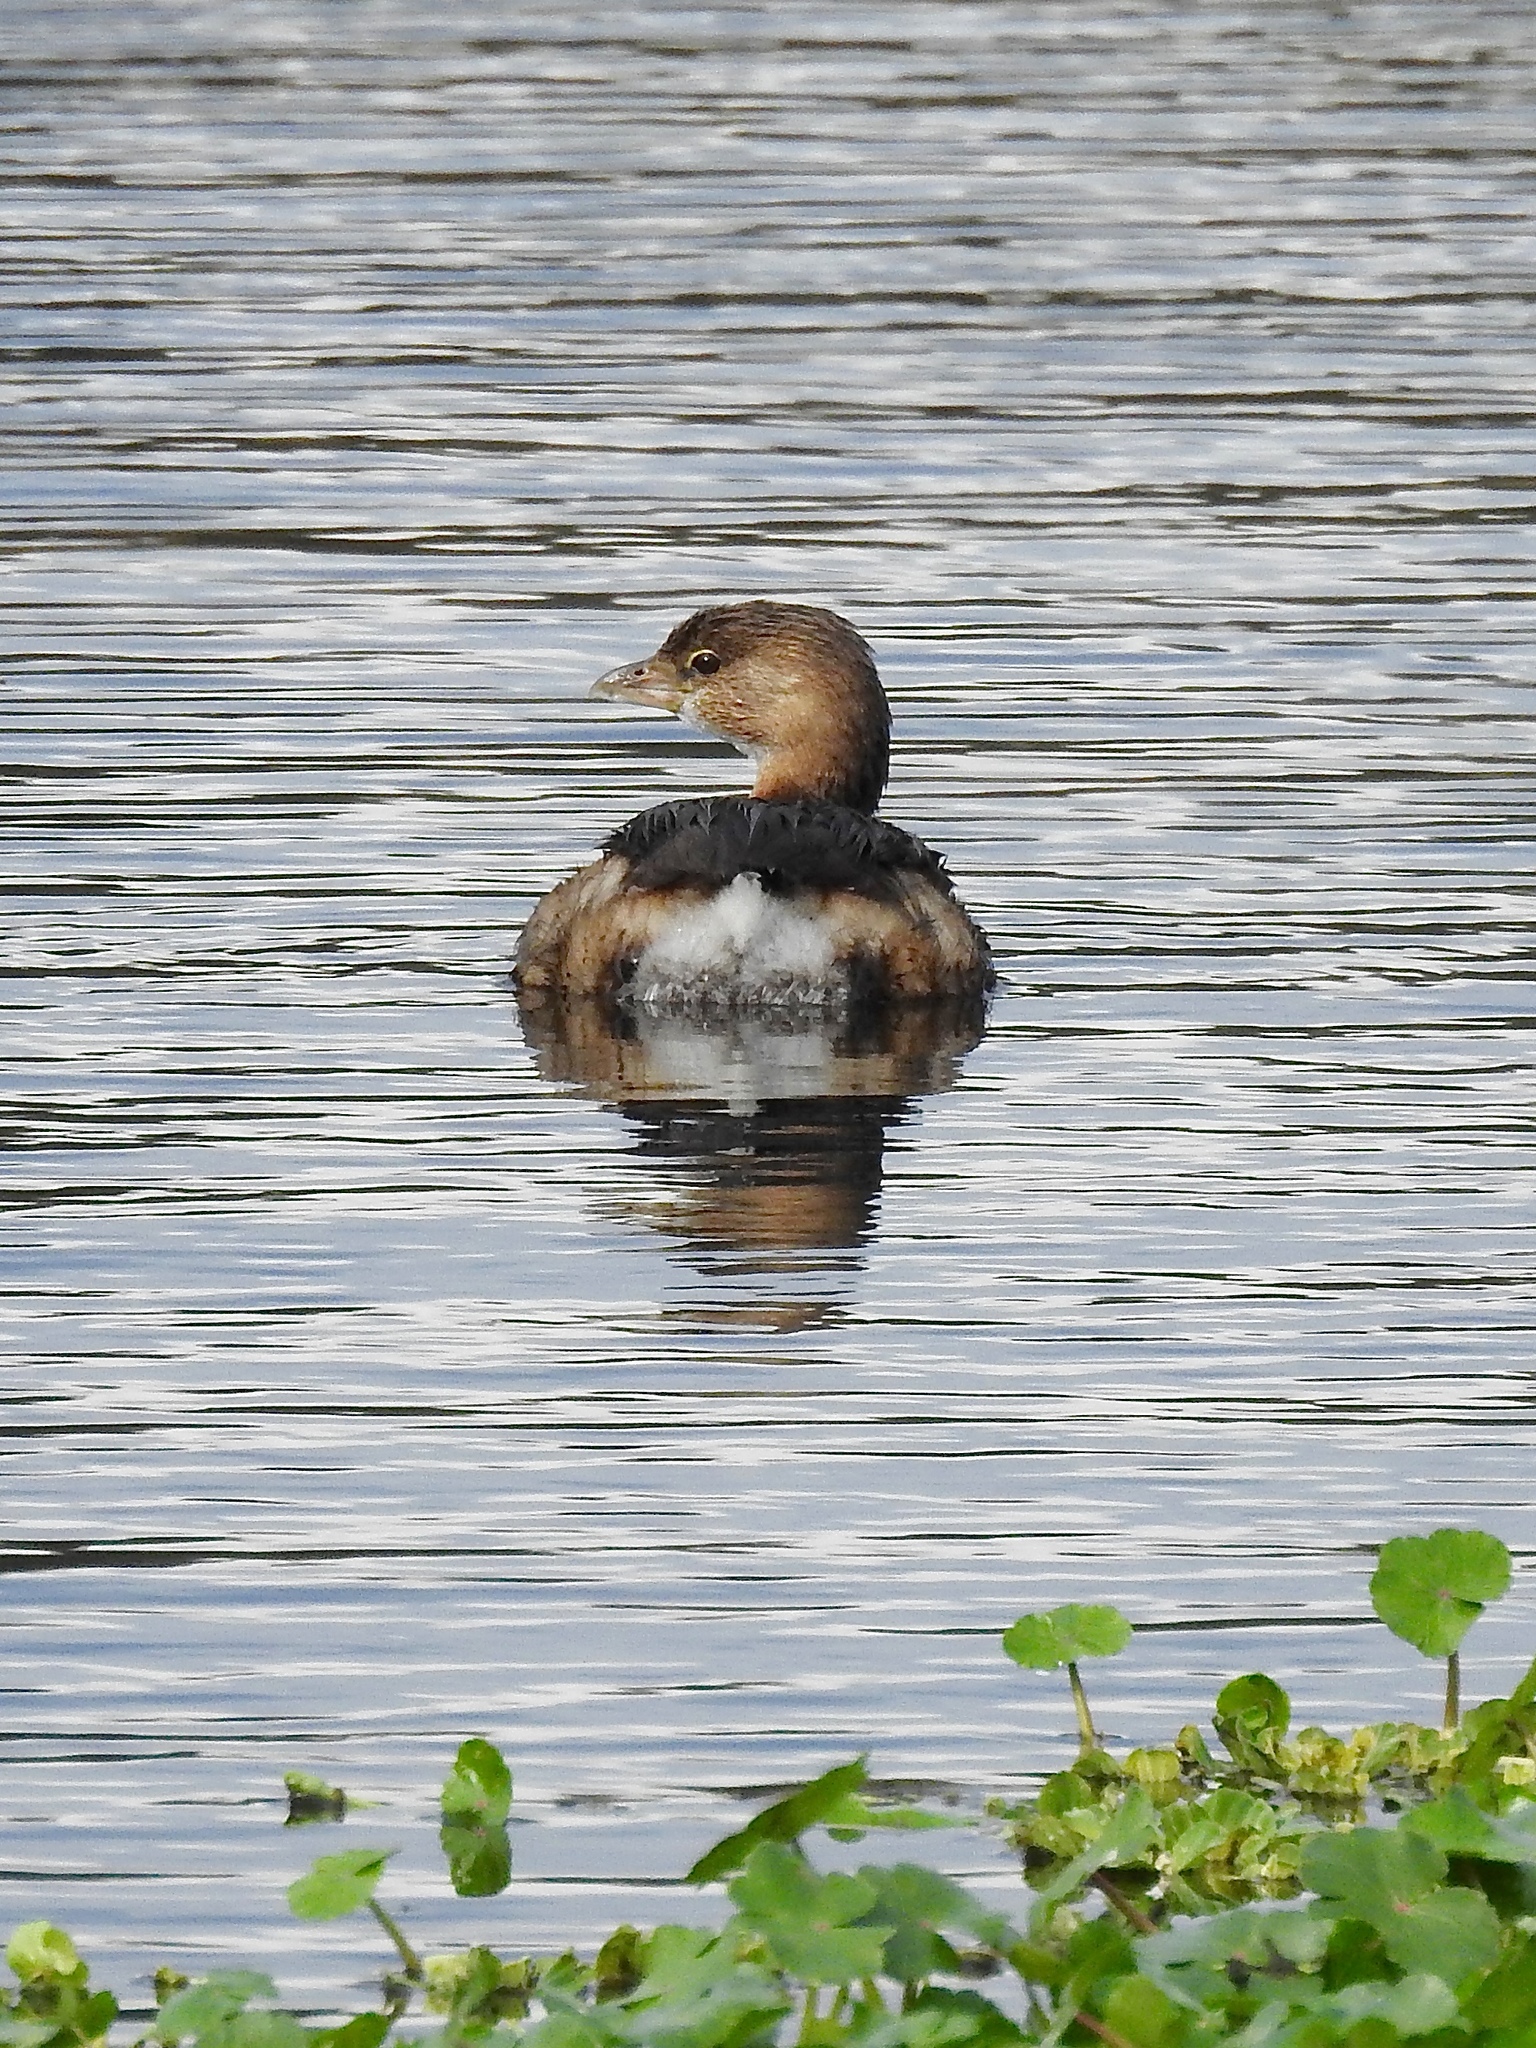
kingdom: Animalia
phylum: Chordata
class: Aves
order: Podicipediformes
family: Podicipedidae
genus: Podilymbus
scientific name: Podilymbus podiceps
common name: Pied-billed grebe
